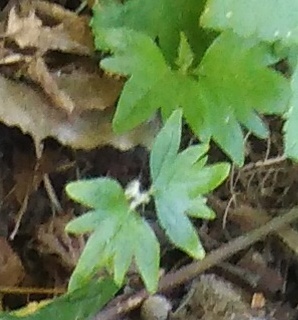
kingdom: Plantae
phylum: Tracheophyta
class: Magnoliopsida
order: Malvales
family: Malvaceae
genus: Tilia
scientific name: Tilia cordata
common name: Small-leaved lime
